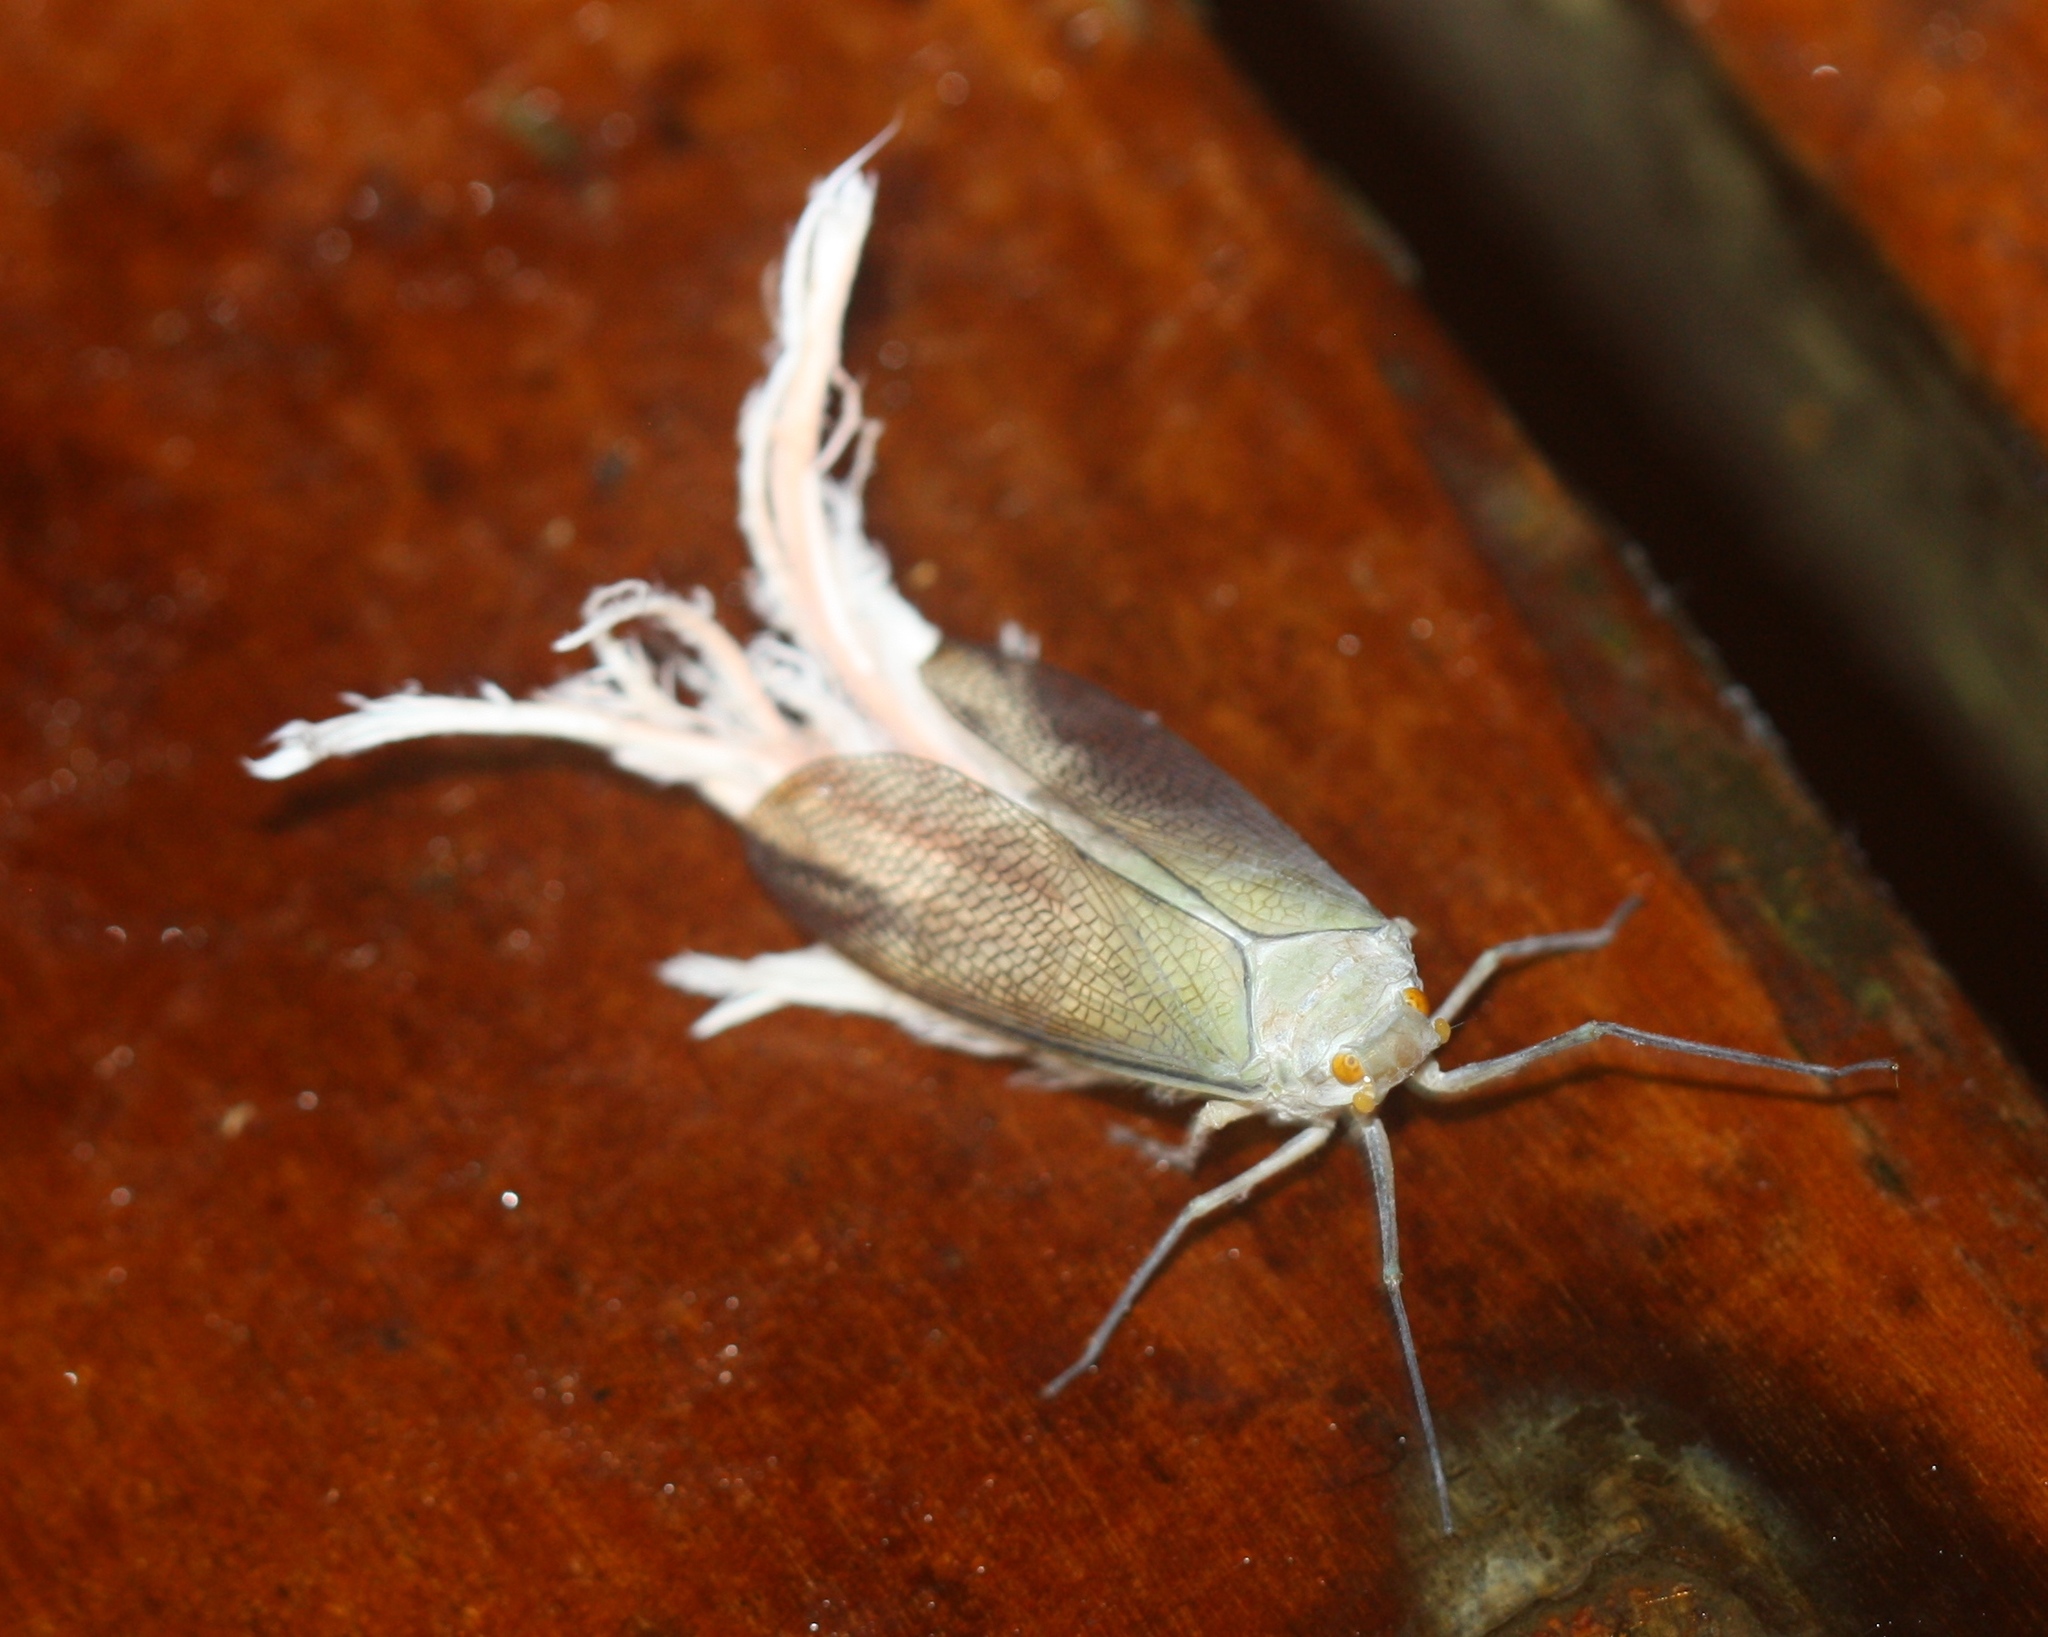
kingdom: Animalia
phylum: Arthropoda
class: Insecta
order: Hemiptera
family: Fulgoridae
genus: Pterodictya
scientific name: Pterodictya reticularis
